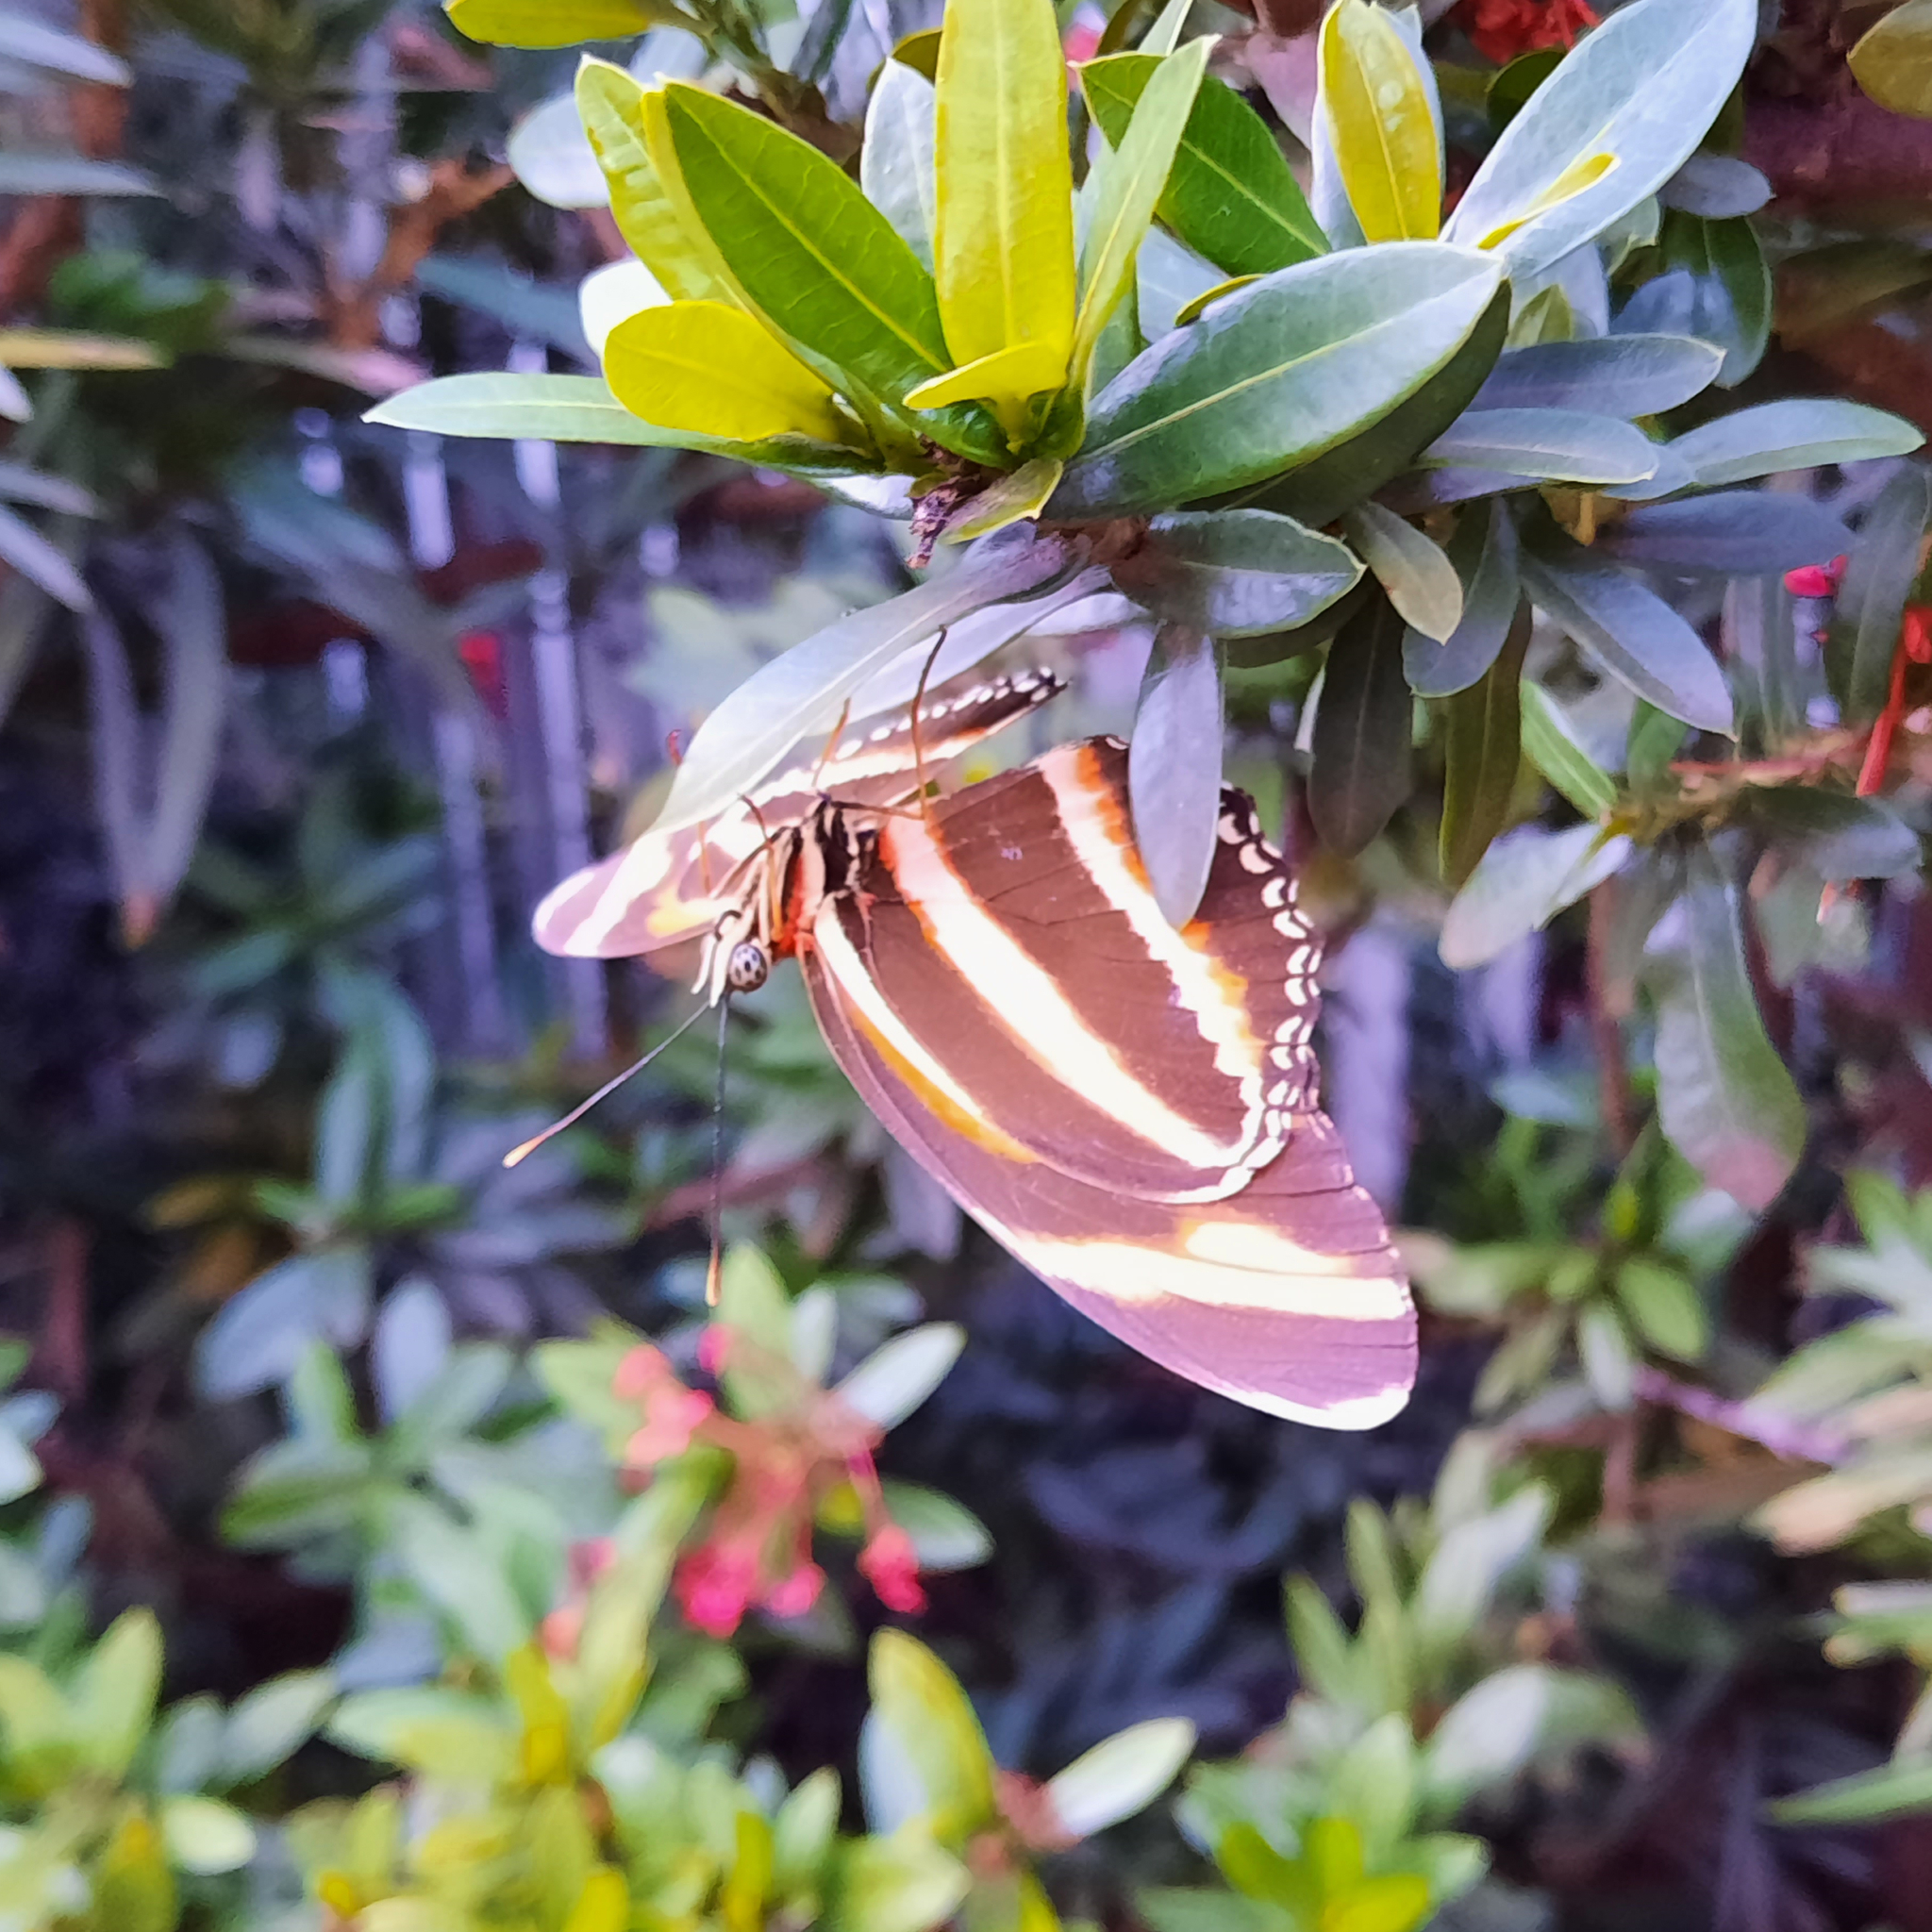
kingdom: Animalia
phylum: Arthropoda
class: Insecta
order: Lepidoptera
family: Nymphalidae
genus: Dryadula
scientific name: Dryadula phaetusa
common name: Banded orange heliconian
